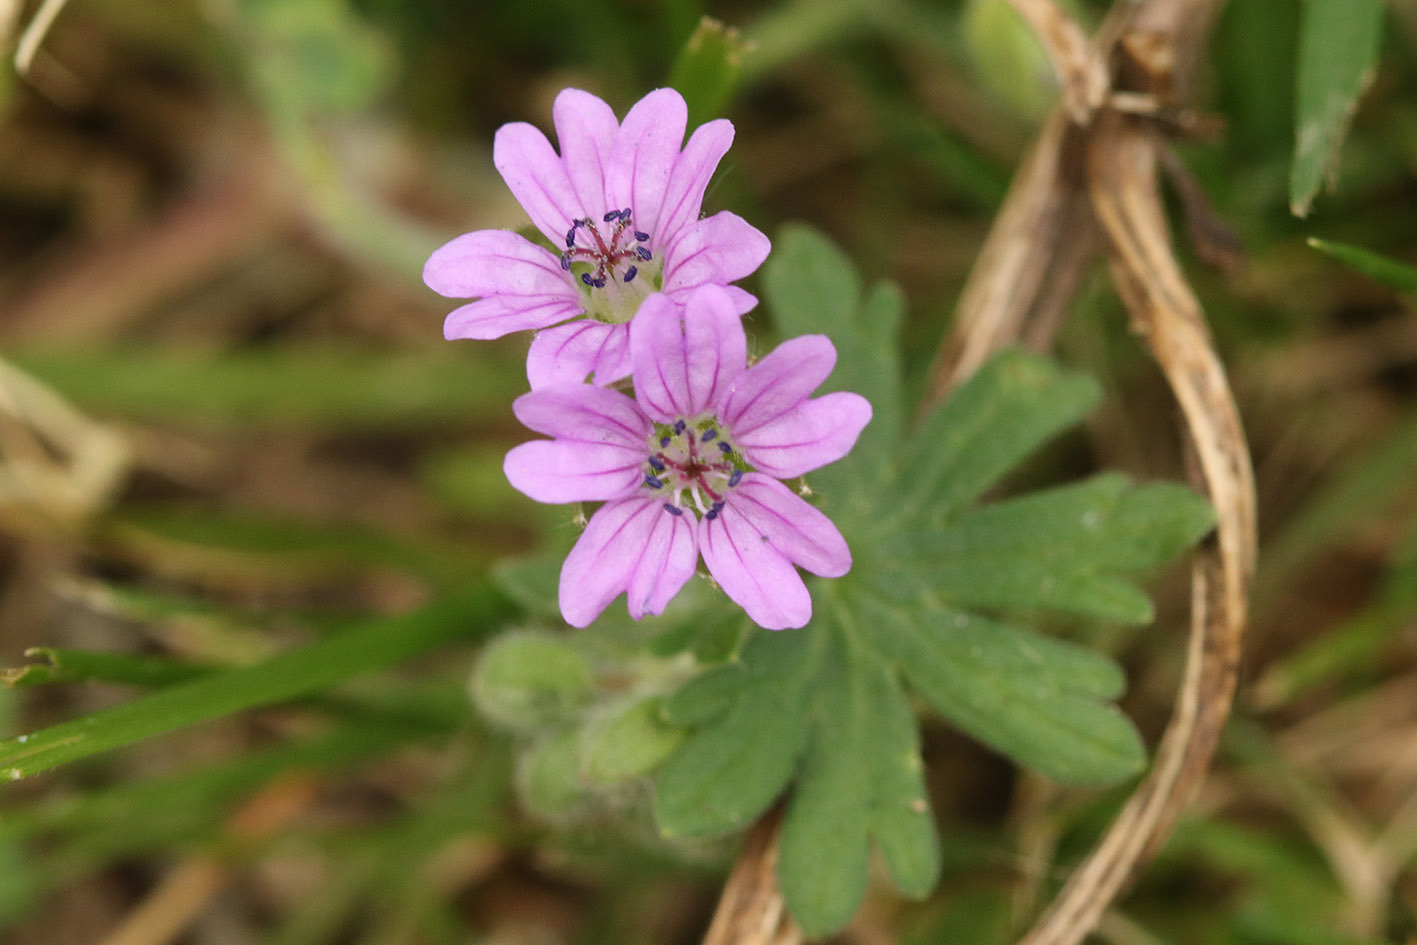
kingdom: Plantae
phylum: Tracheophyta
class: Magnoliopsida
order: Geraniales
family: Geraniaceae
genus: Geranium
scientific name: Geranium molle
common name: Dove's-foot crane's-bill
